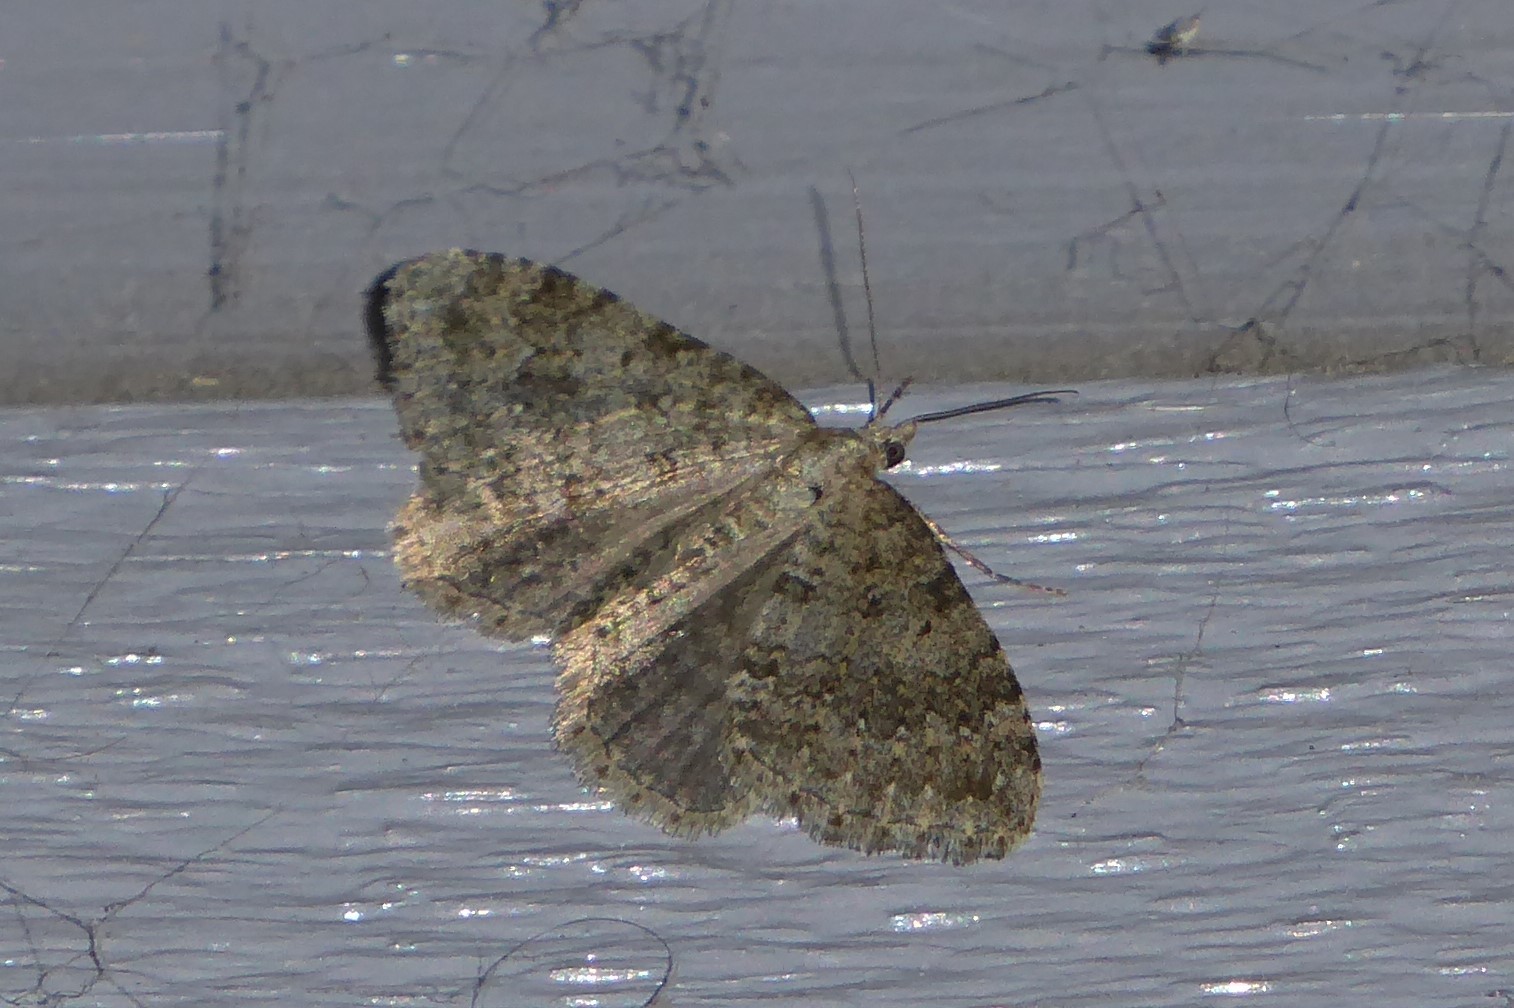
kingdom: Animalia
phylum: Arthropoda
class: Insecta
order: Lepidoptera
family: Geometridae
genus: Helastia
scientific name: Helastia corcularia
